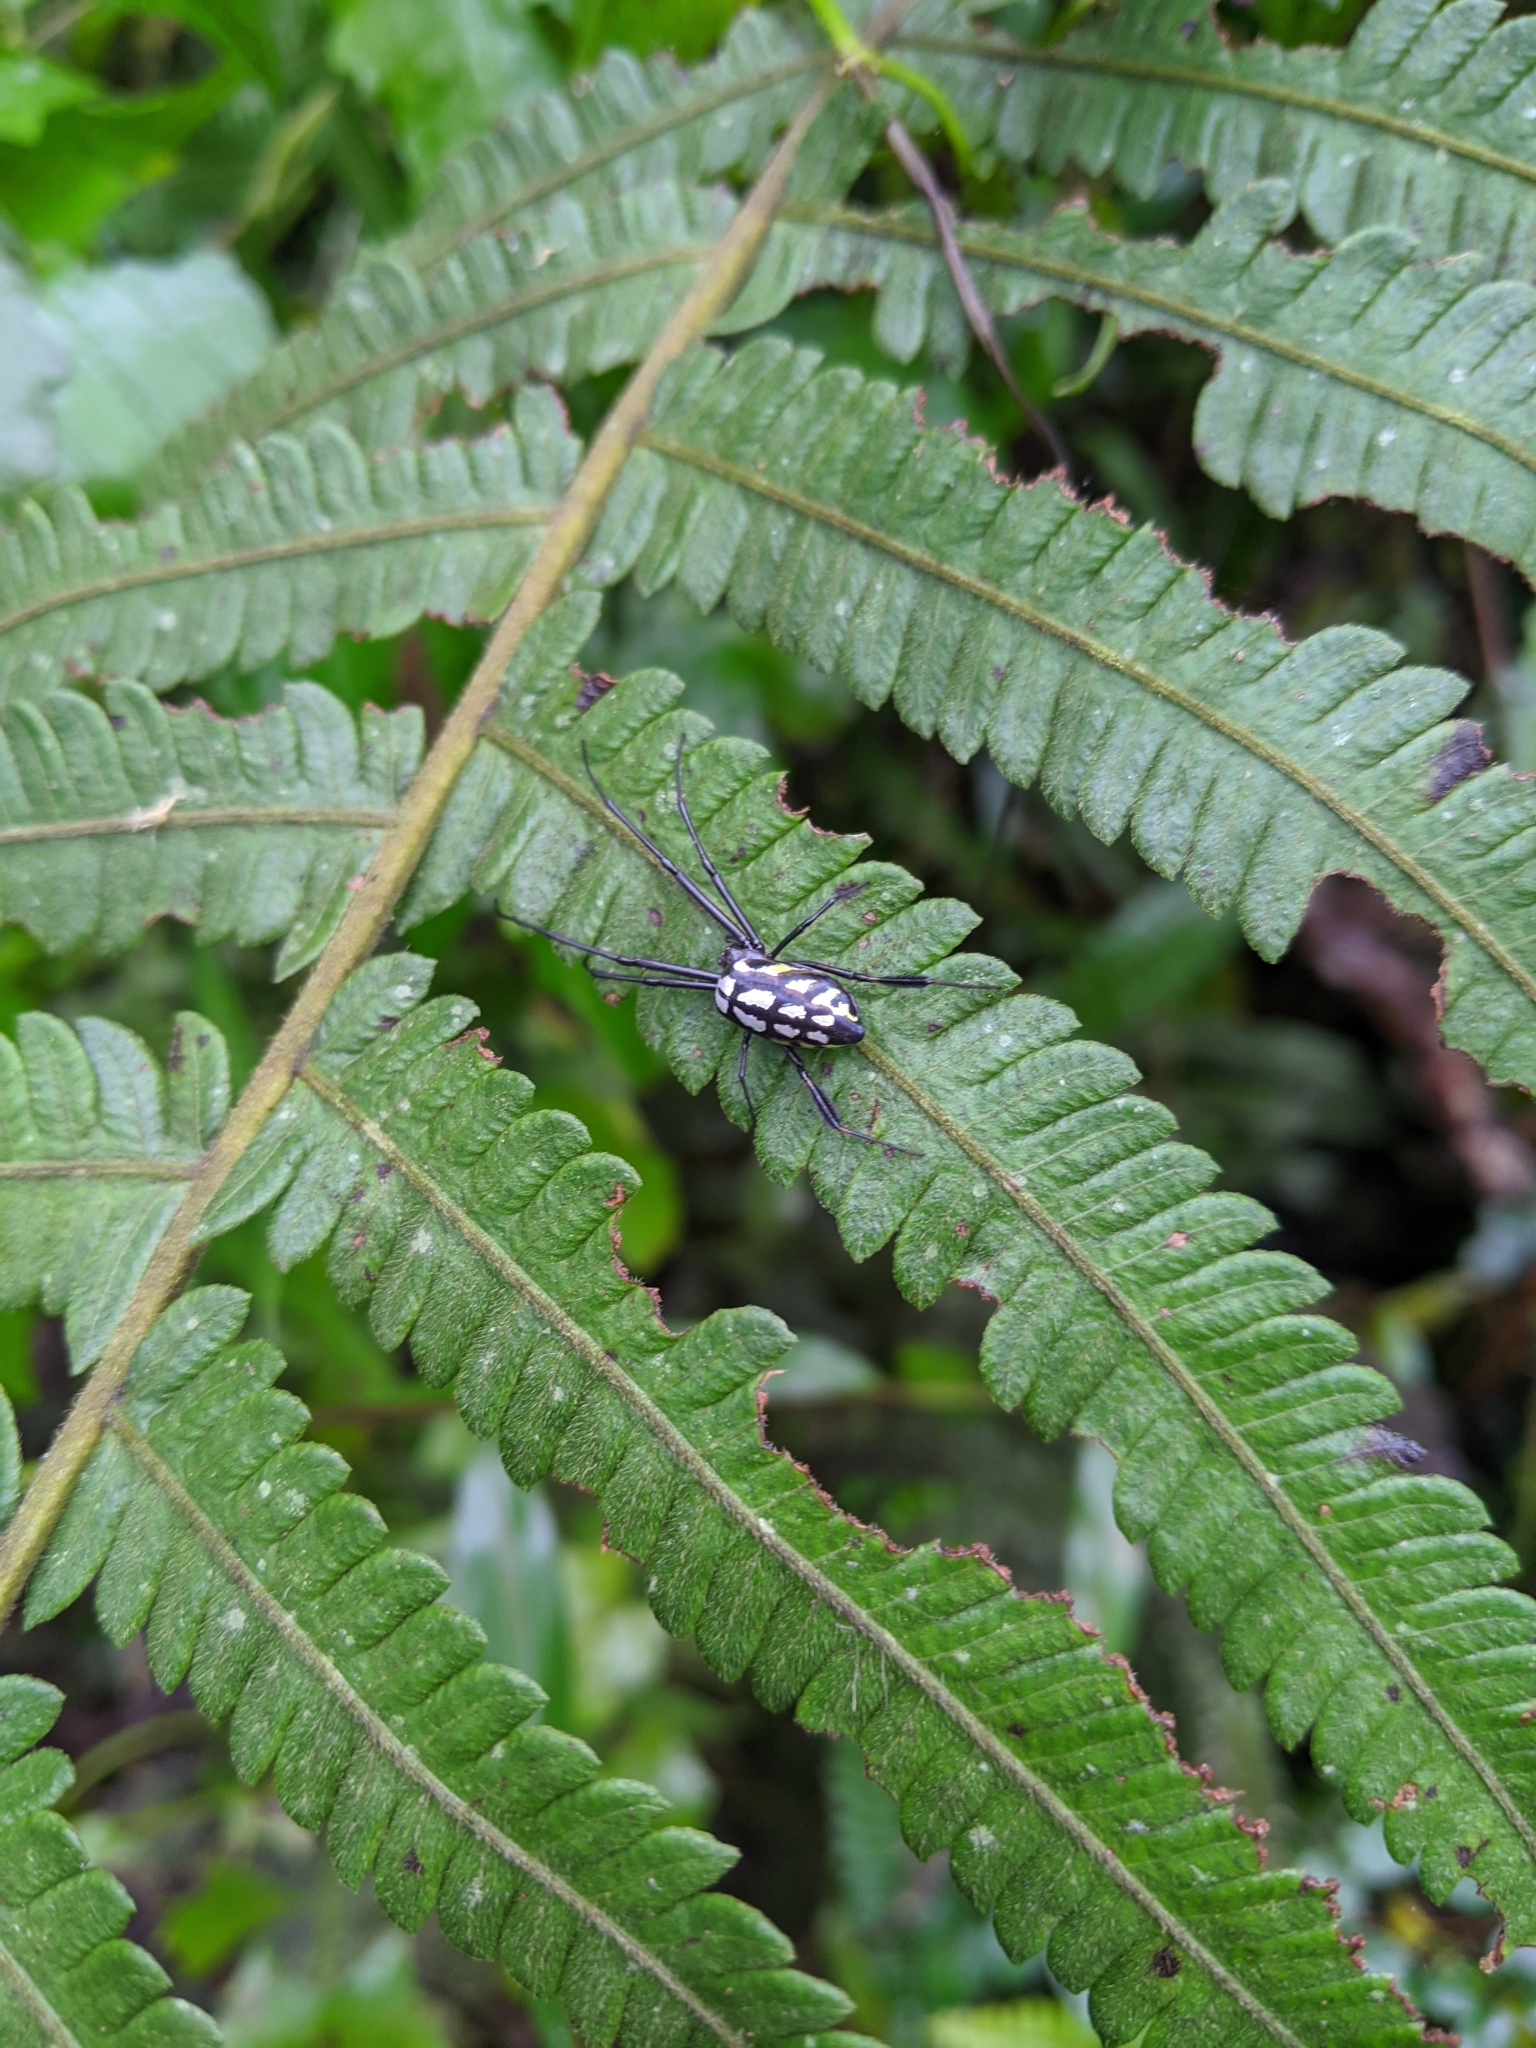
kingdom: Animalia
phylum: Arthropoda
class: Arachnida
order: Araneae
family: Tetragnathidae
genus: Leucauge
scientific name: Leucauge tessellata
